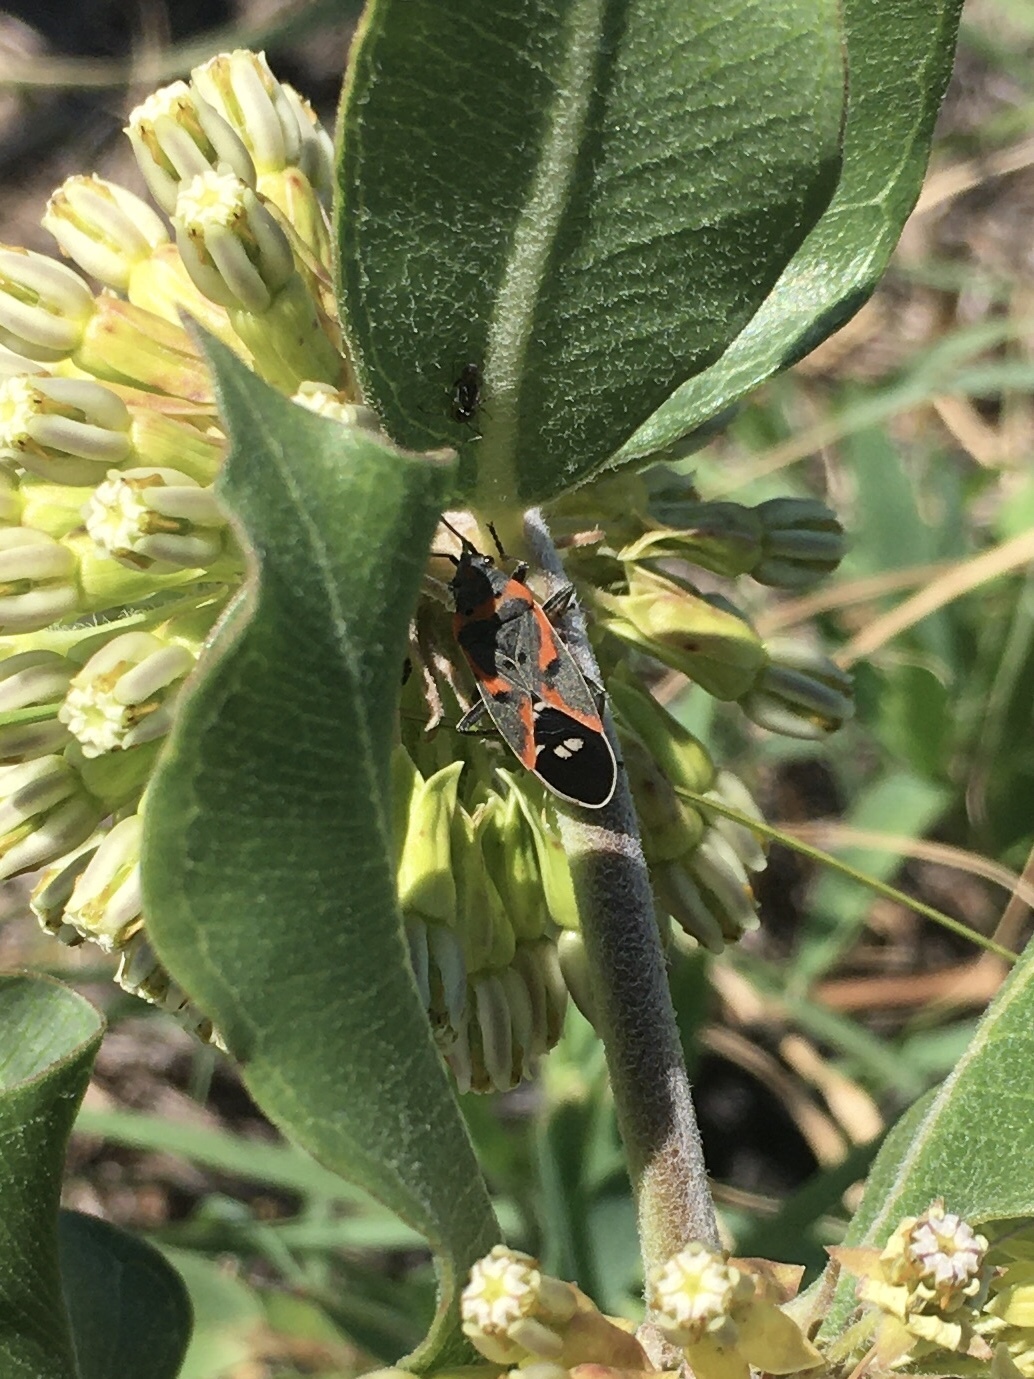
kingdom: Animalia
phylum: Arthropoda
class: Insecta
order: Hemiptera
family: Lygaeidae
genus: Lygaeus
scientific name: Lygaeus kalmii
